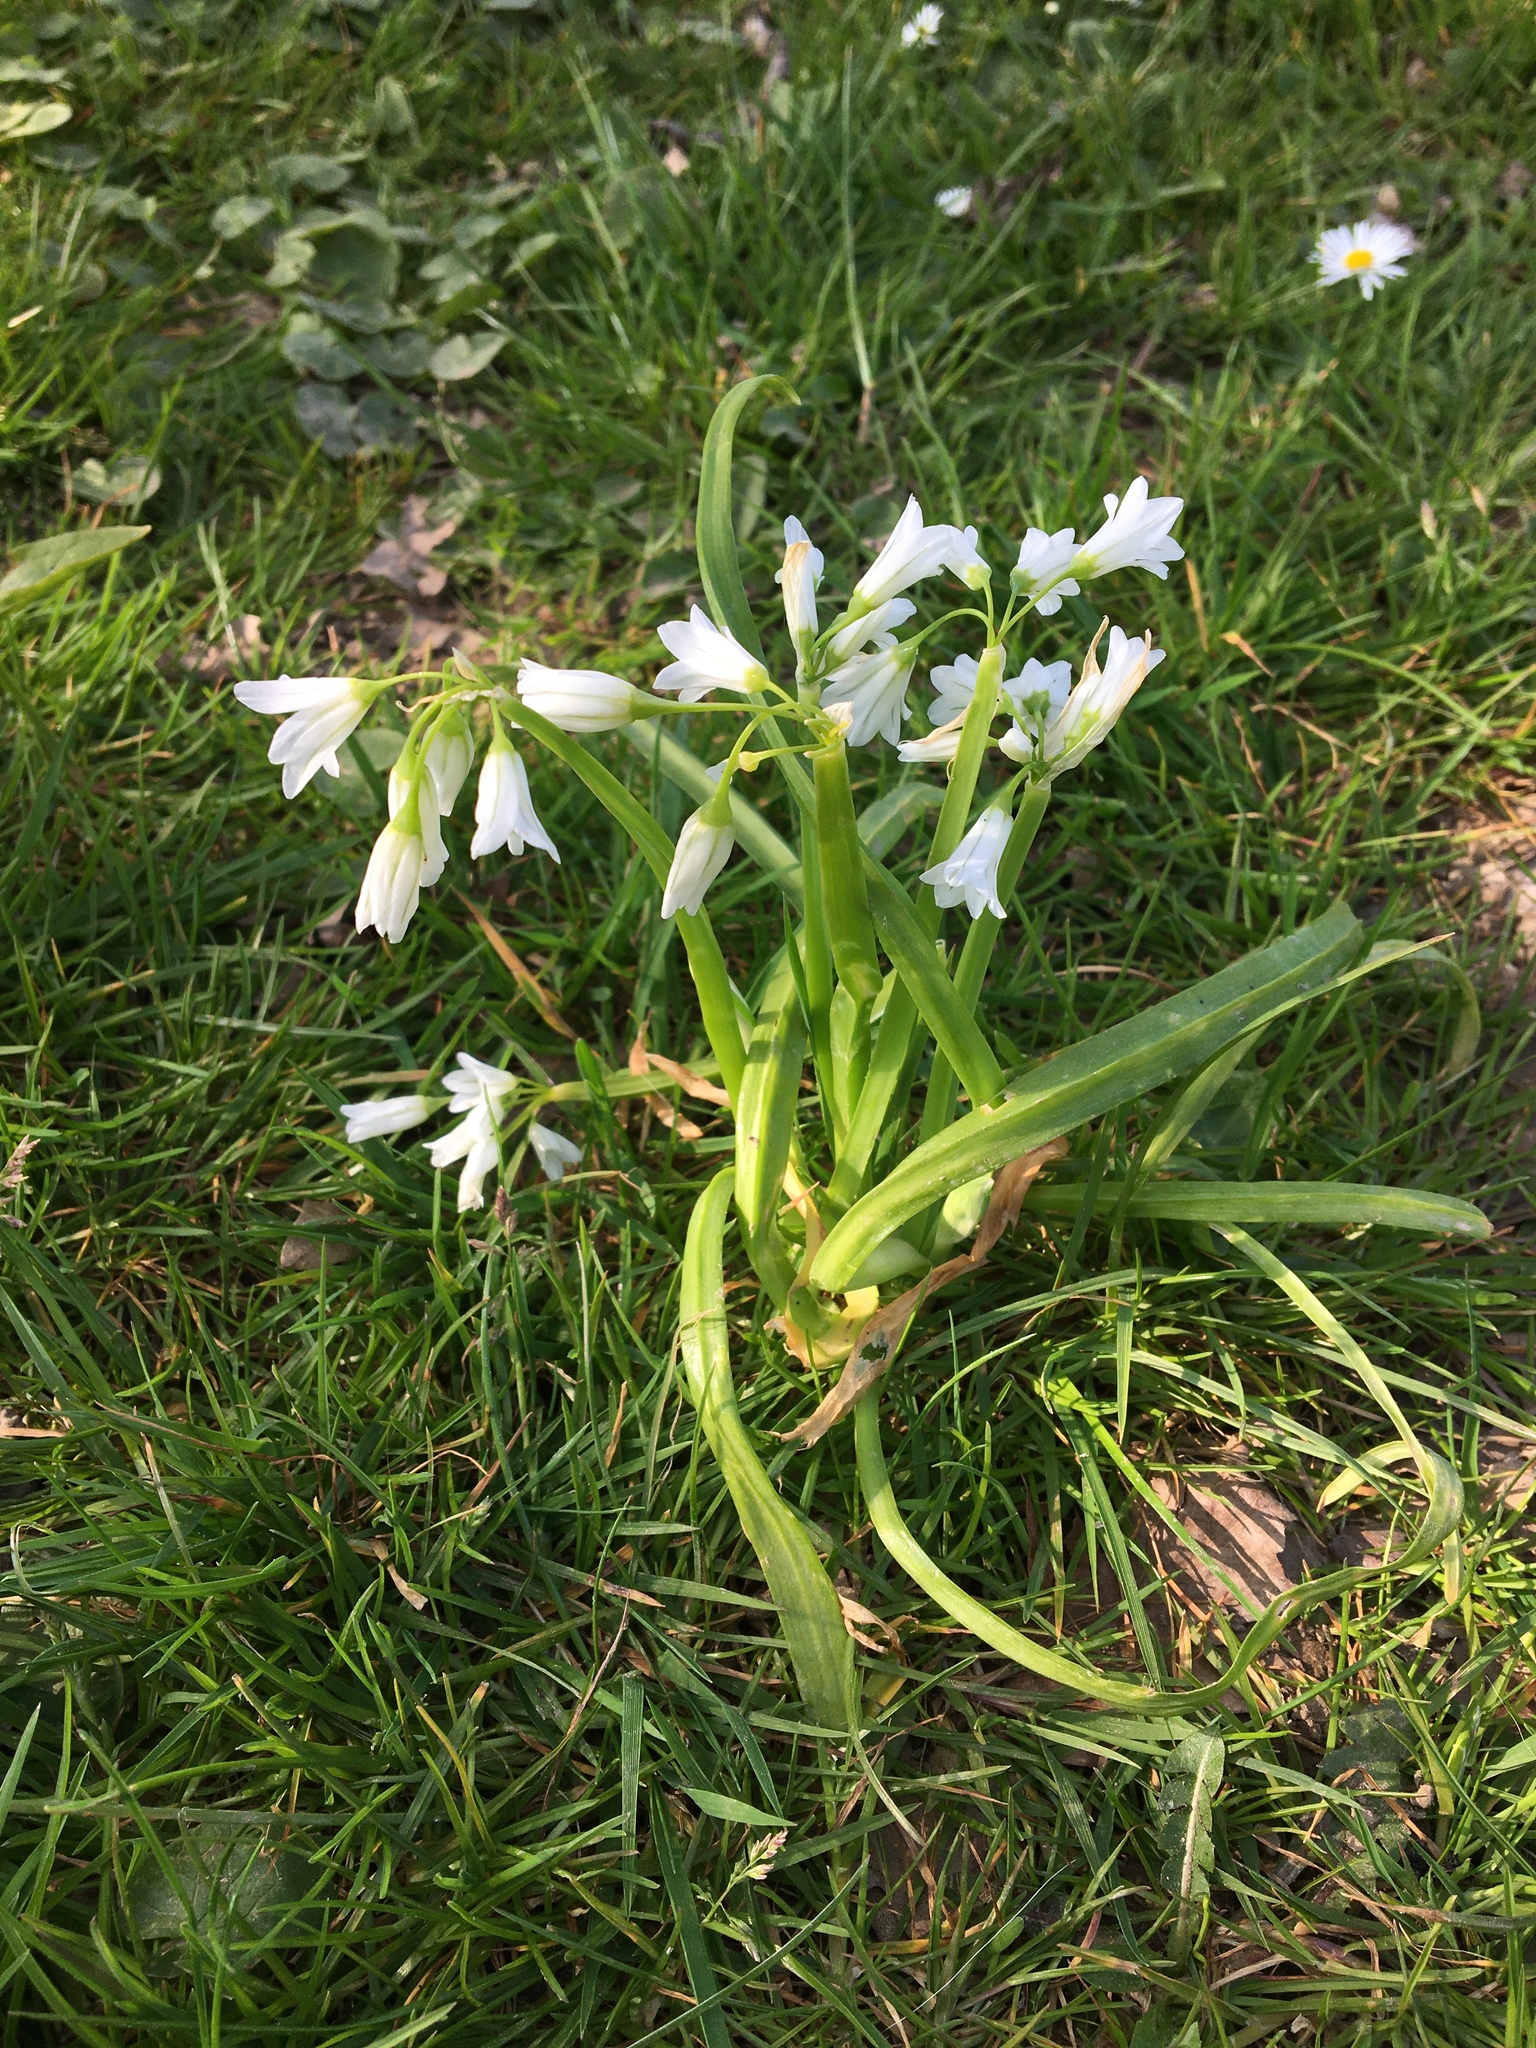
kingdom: Plantae
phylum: Tracheophyta
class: Liliopsida
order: Asparagales
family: Amaryllidaceae
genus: Allium
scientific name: Allium triquetrum
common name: Three-cornered garlic
